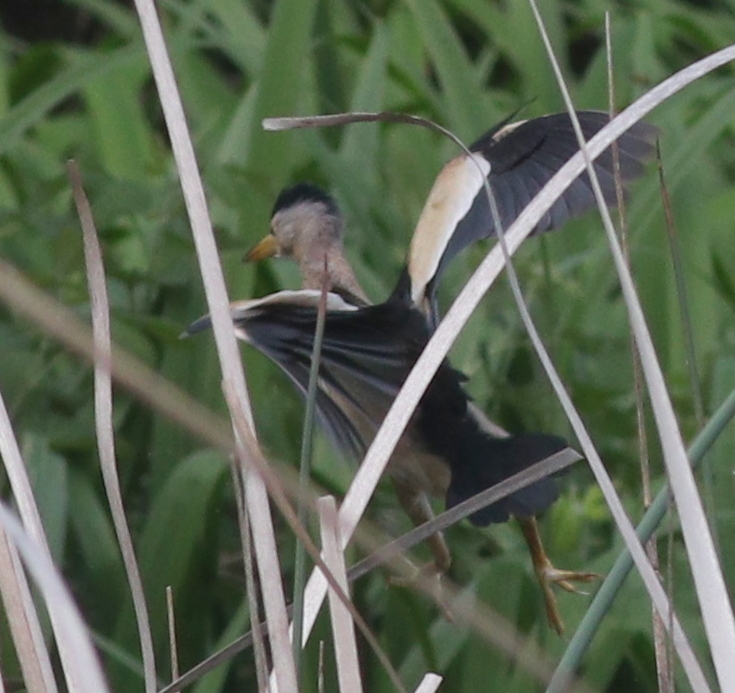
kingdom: Animalia
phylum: Chordata
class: Aves
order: Pelecaniformes
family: Ardeidae
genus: Ixobrychus
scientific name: Ixobrychus minutus
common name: Little bittern
